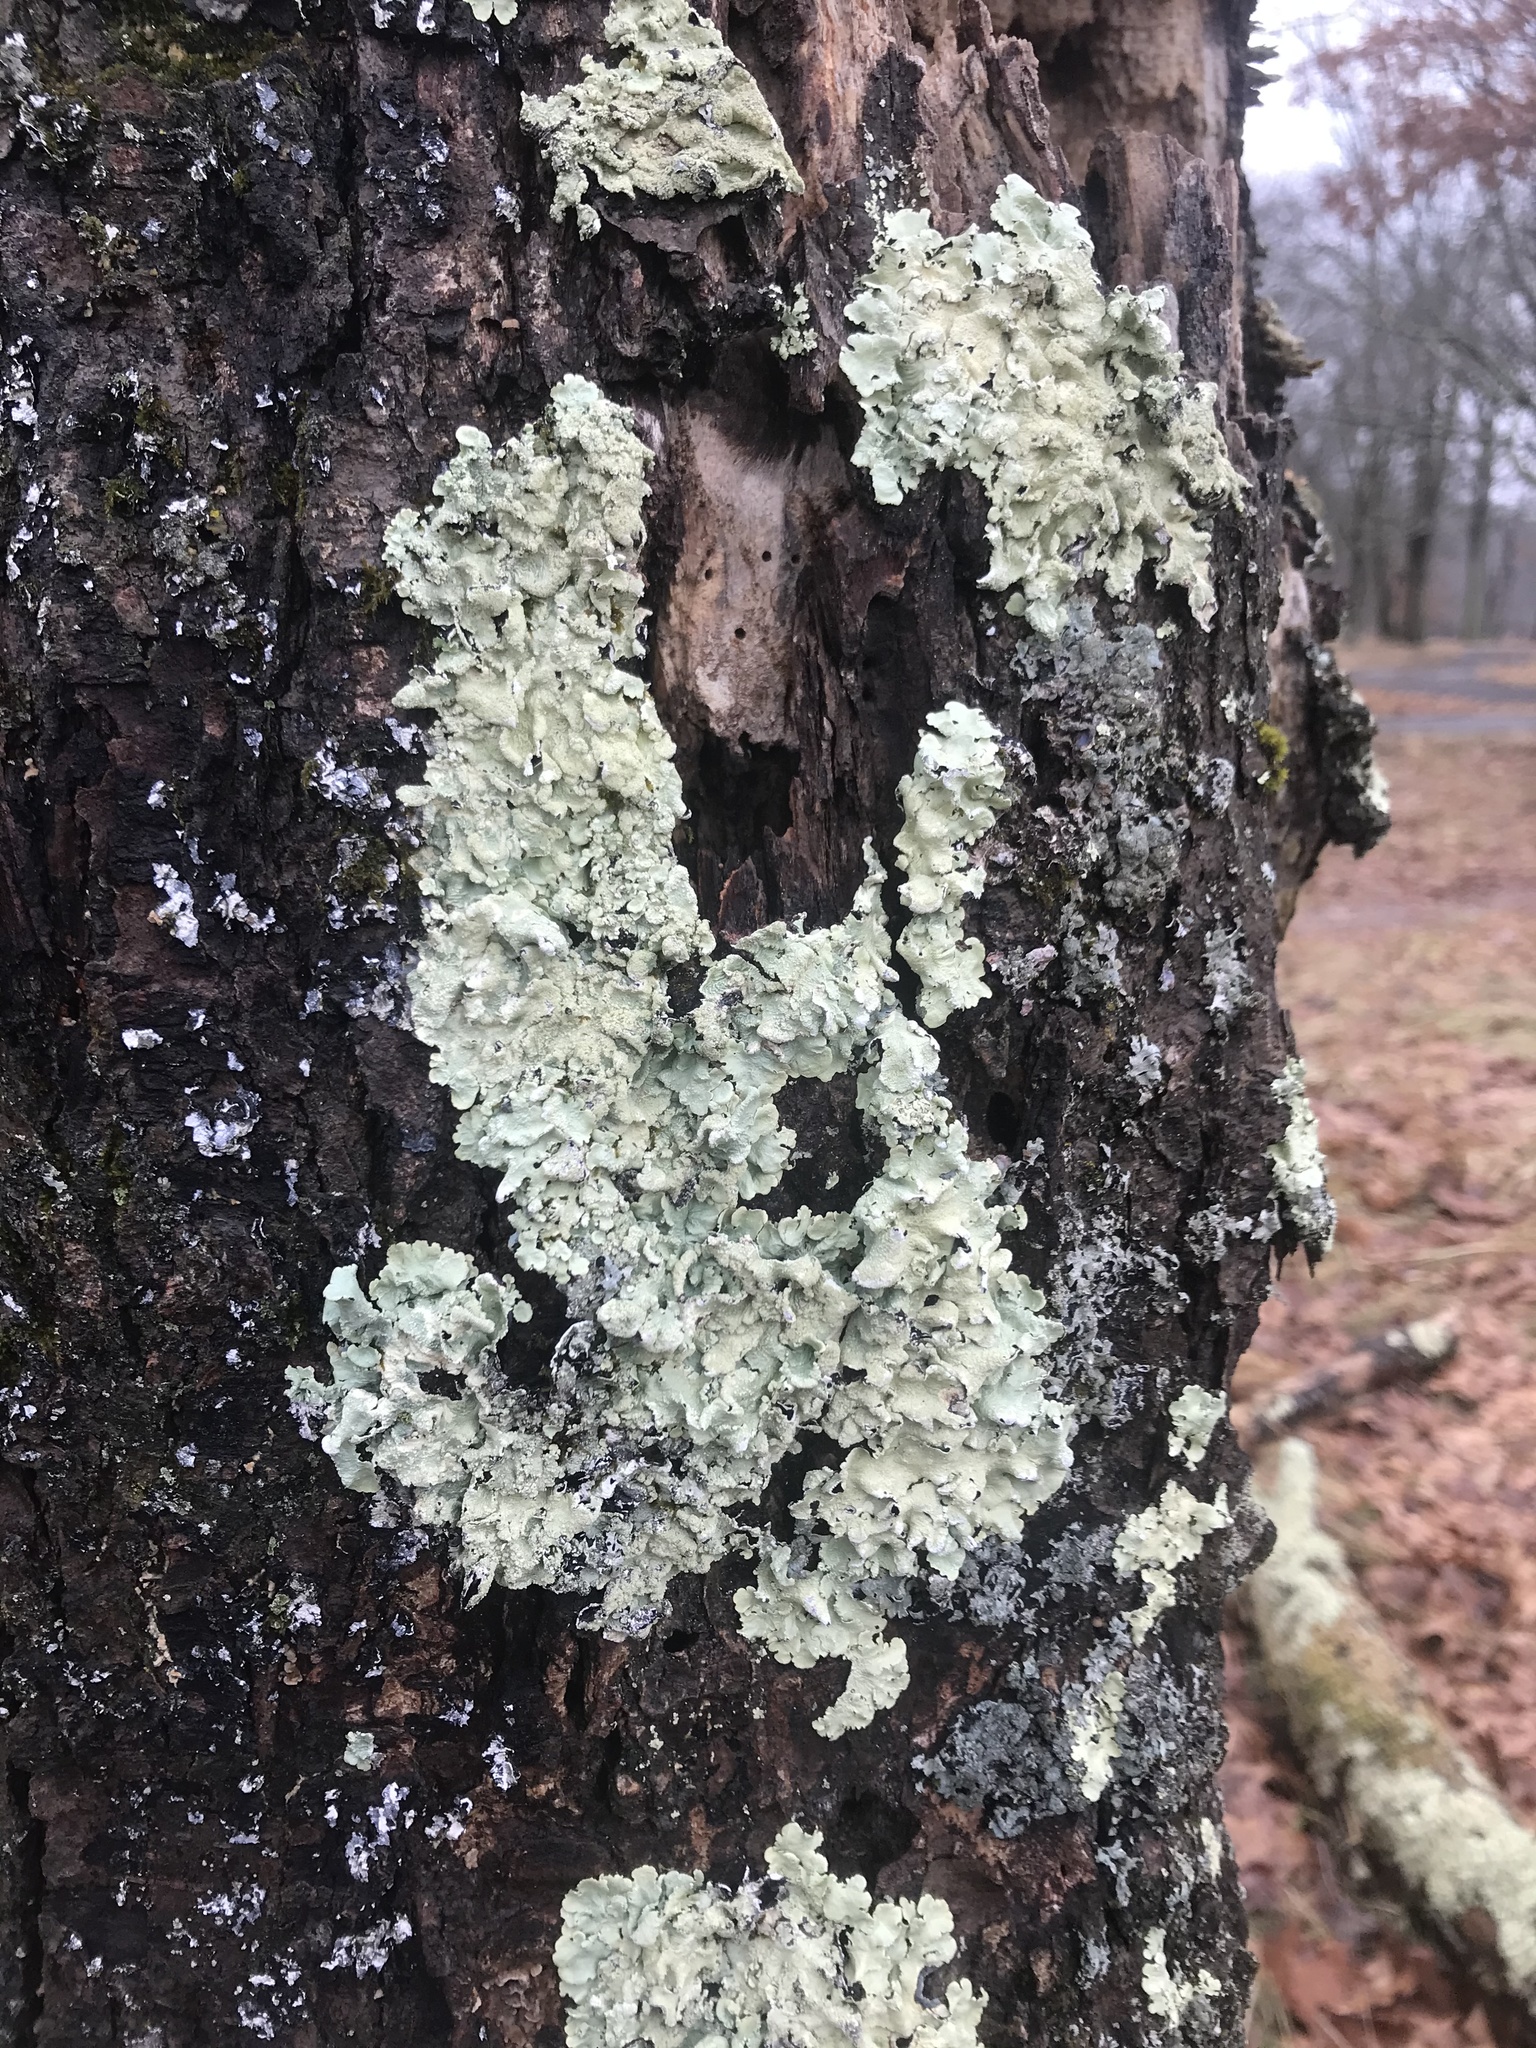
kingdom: Fungi
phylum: Ascomycota
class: Lecanoromycetes
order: Lecanorales
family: Parmeliaceae
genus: Flavoparmelia
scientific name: Flavoparmelia caperata
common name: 40-mile per hour lichen
